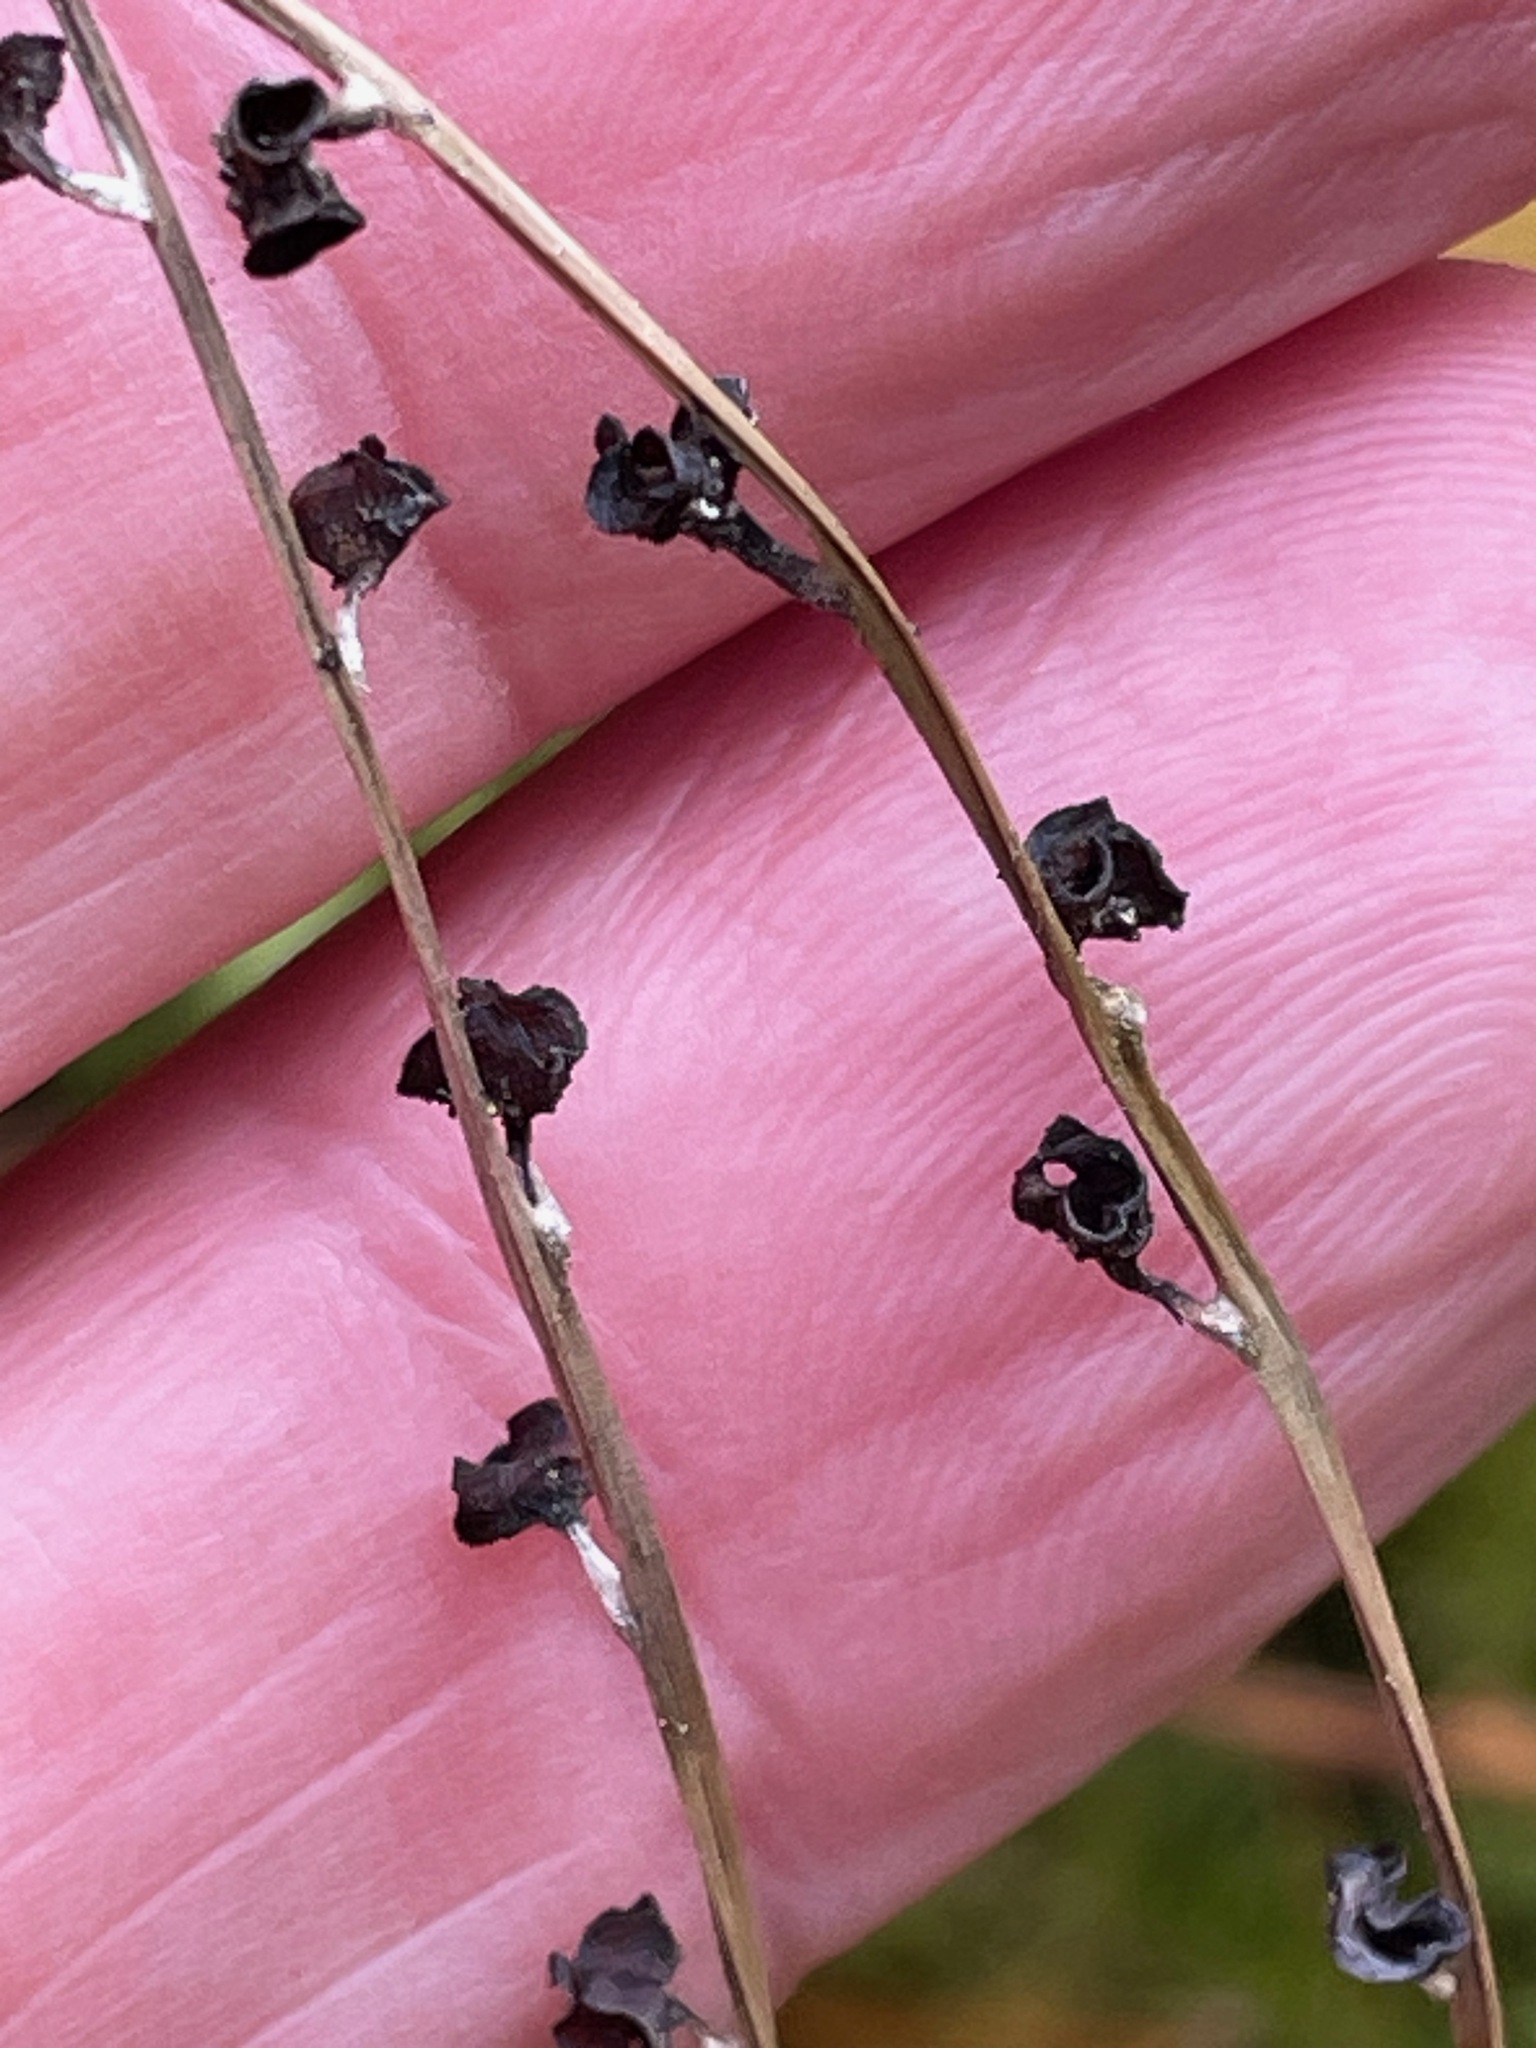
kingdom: Plantae
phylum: Tracheophyta
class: Magnoliopsida
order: Saxifragales
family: Saxifragaceae
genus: Mitella
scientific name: Mitella diphylla
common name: Coolwort
